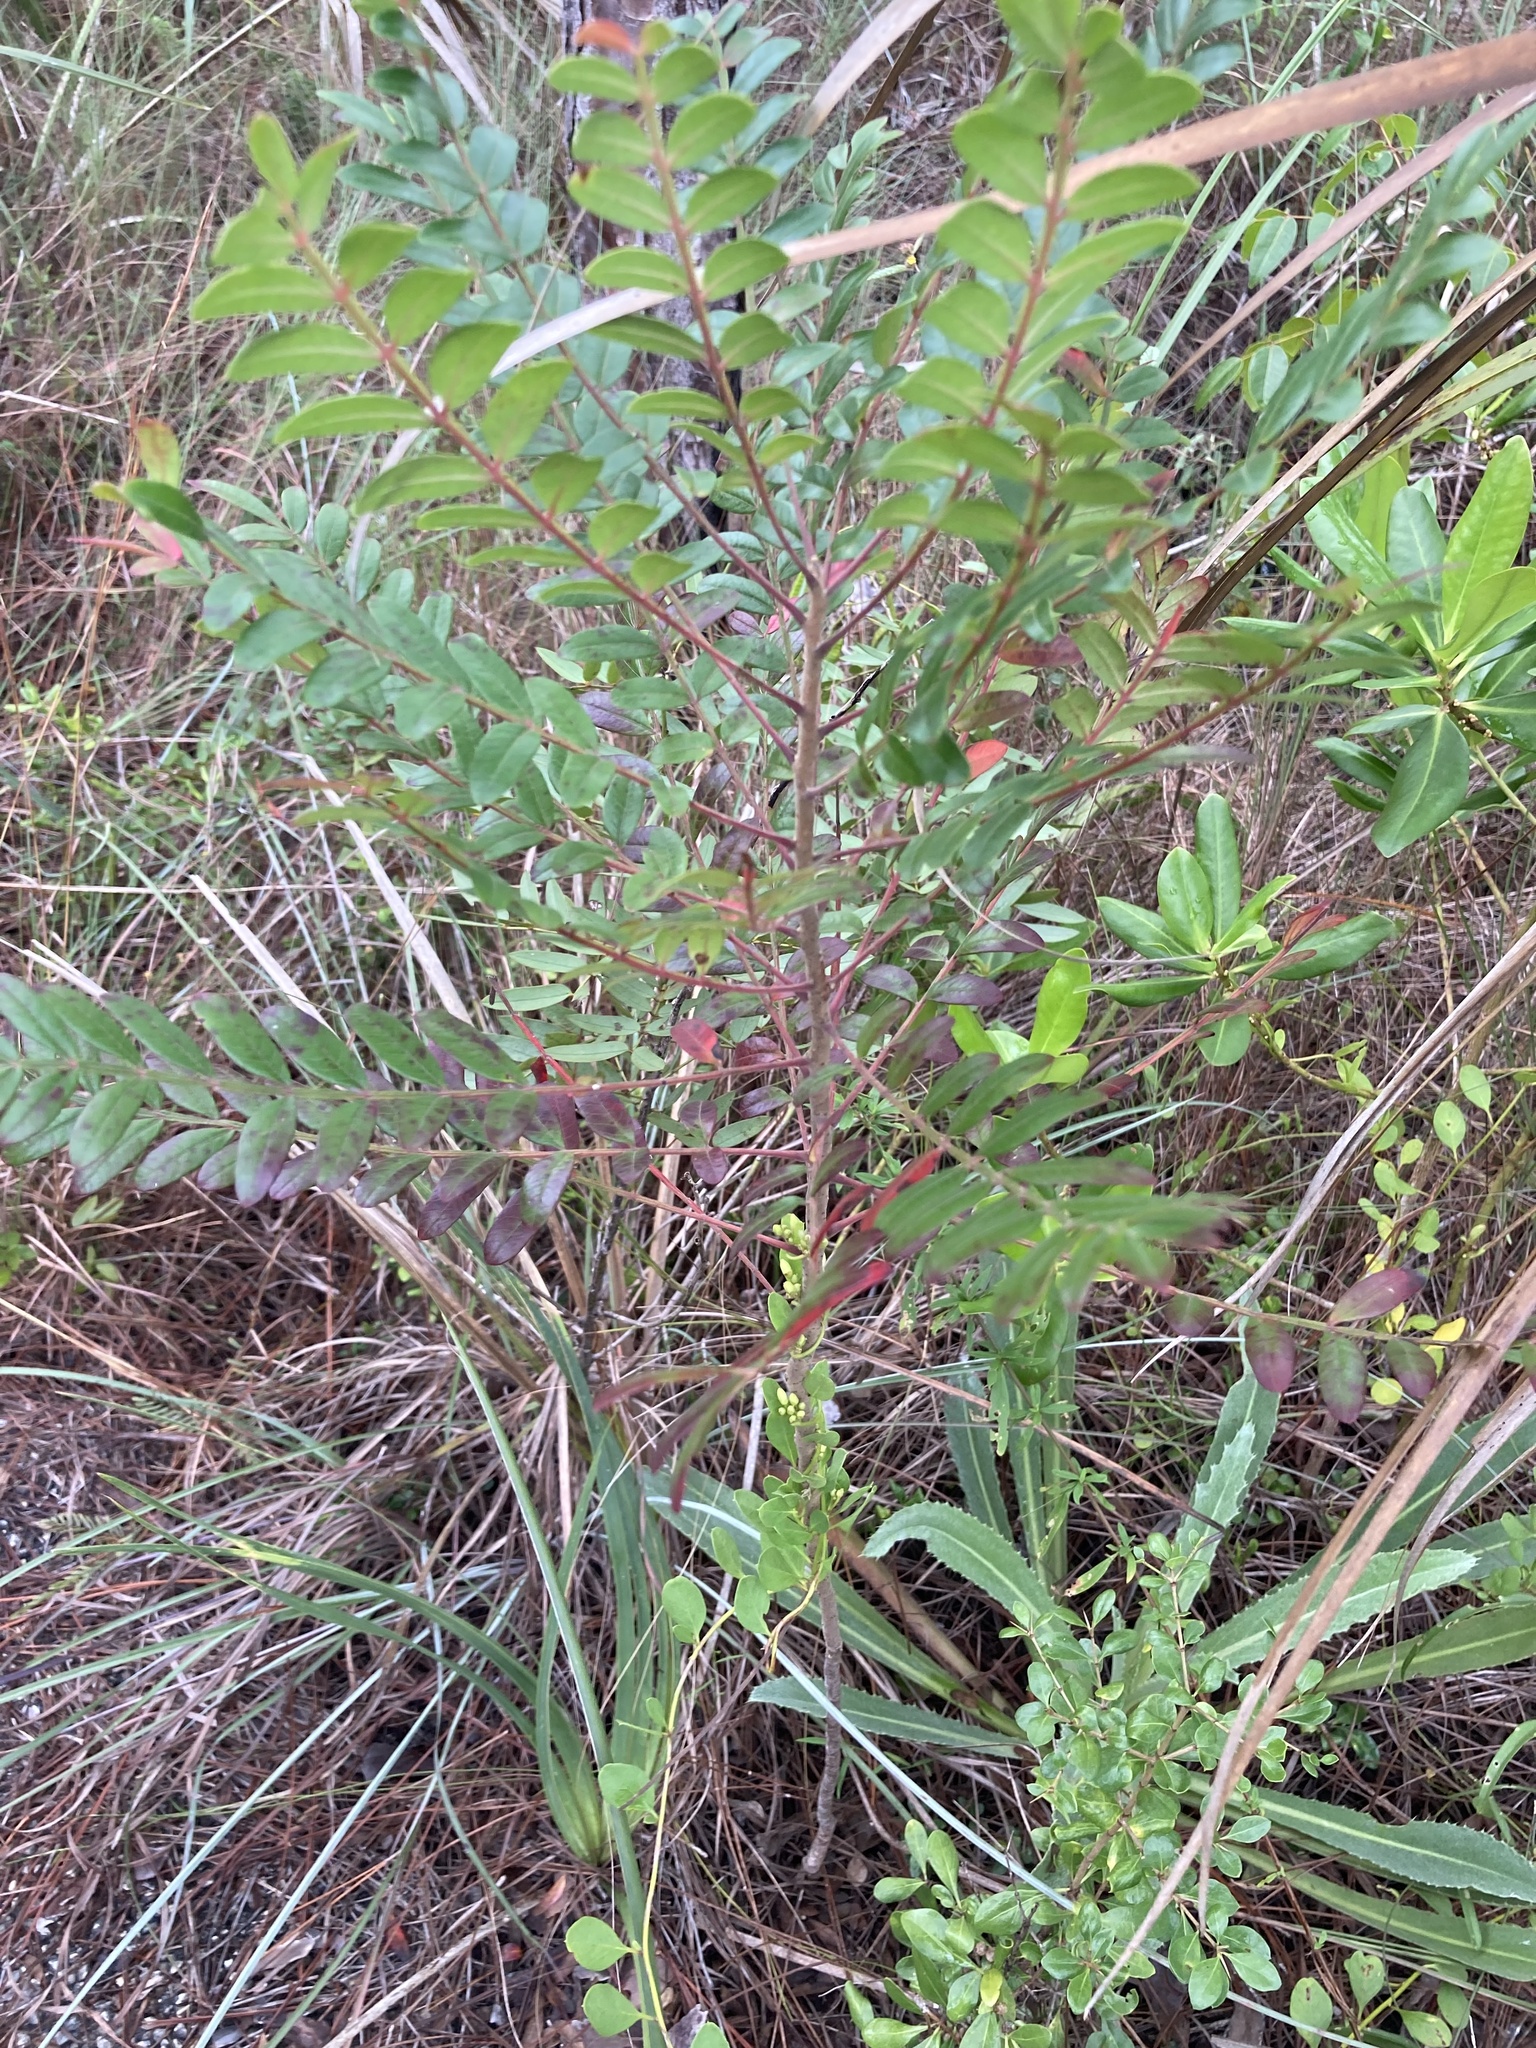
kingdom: Plantae
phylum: Tracheophyta
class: Magnoliopsida
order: Sapindales
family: Anacardiaceae
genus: Rhus
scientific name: Rhus copallina
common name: Shining sumac
